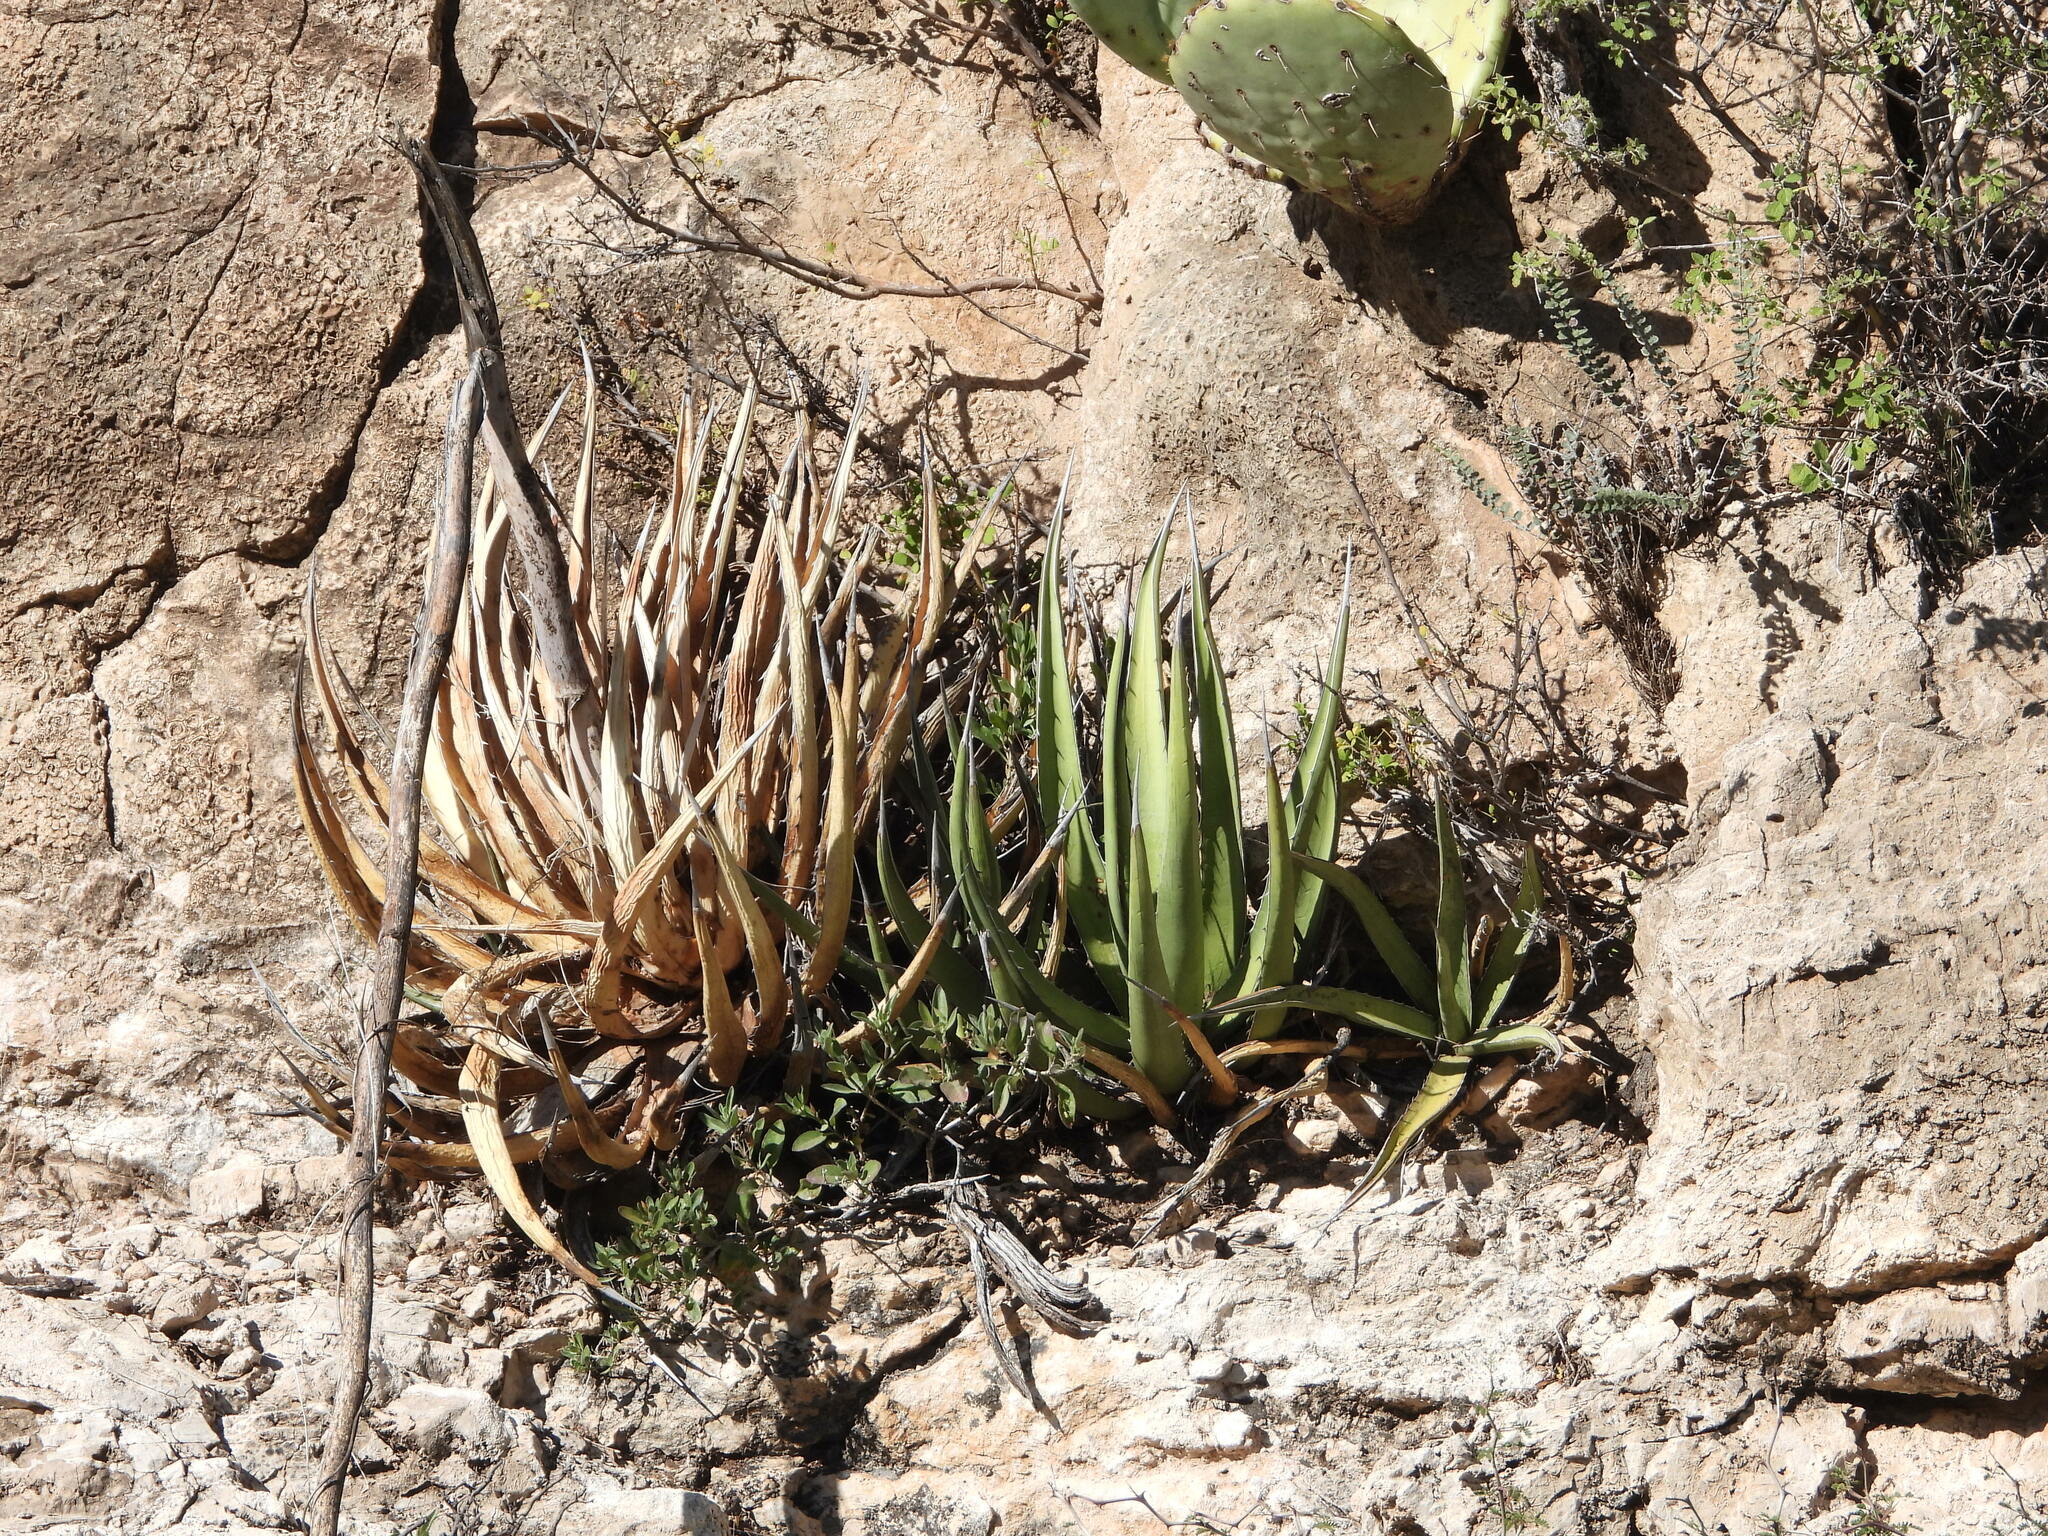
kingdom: Plantae
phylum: Tracheophyta
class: Liliopsida
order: Asparagales
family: Asparagaceae
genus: Agave
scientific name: Agave lechuguilla
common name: Lecheguilla agave
